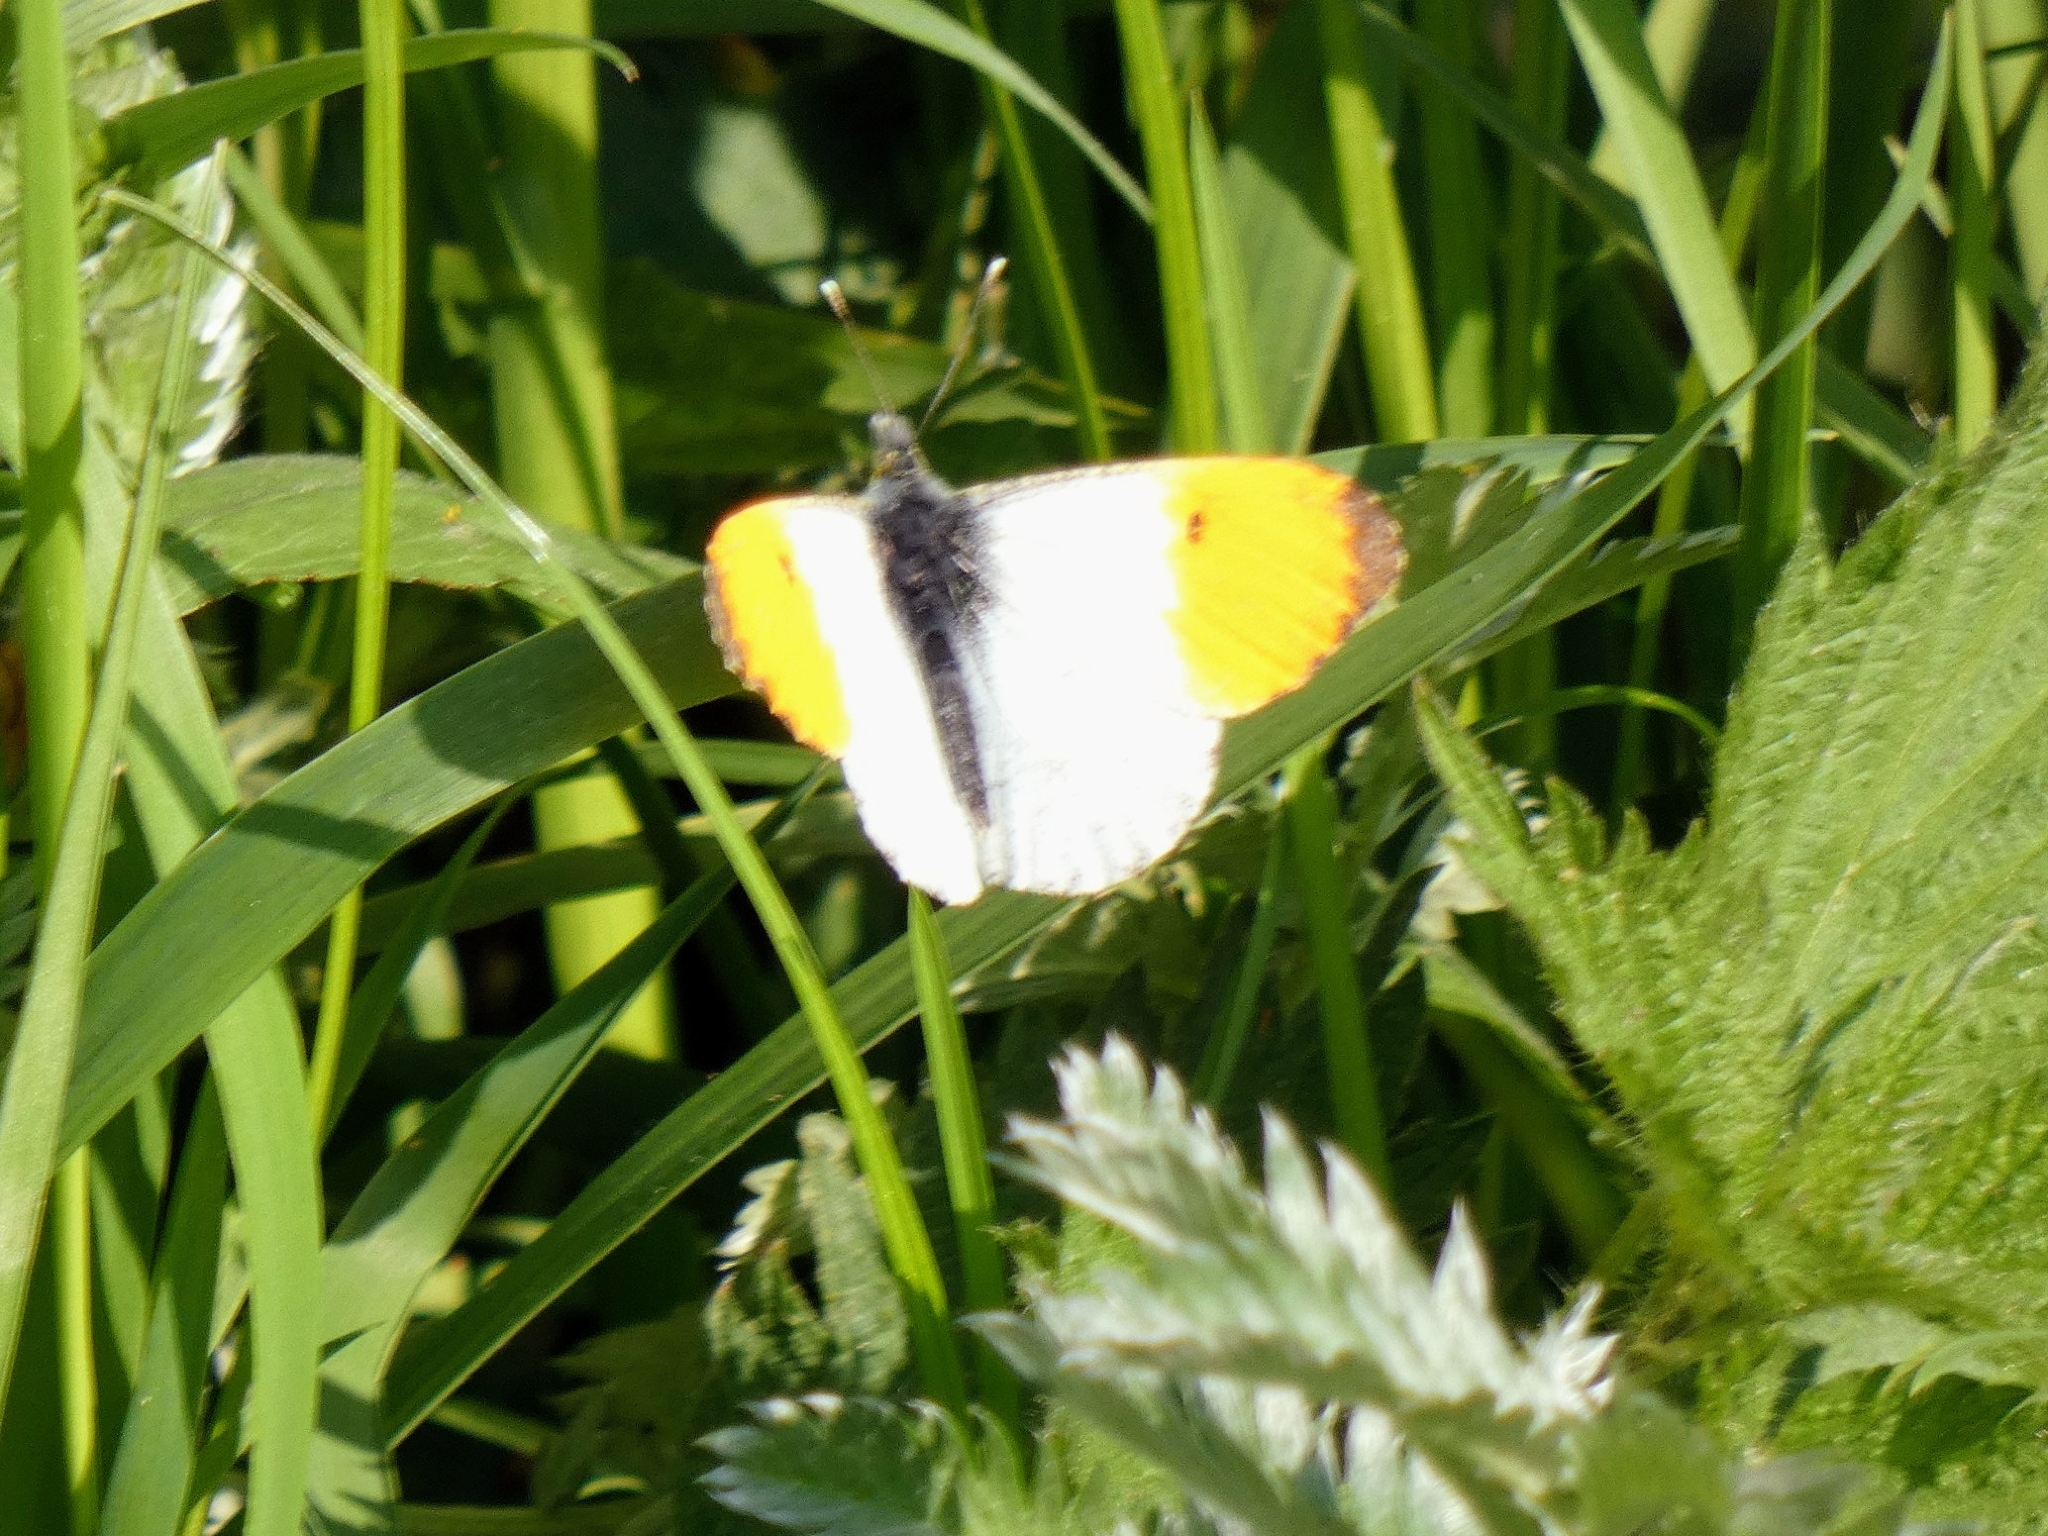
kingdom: Animalia
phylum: Arthropoda
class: Insecta
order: Lepidoptera
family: Pieridae
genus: Anthocharis
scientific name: Anthocharis cardamines
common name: Orange-tip
